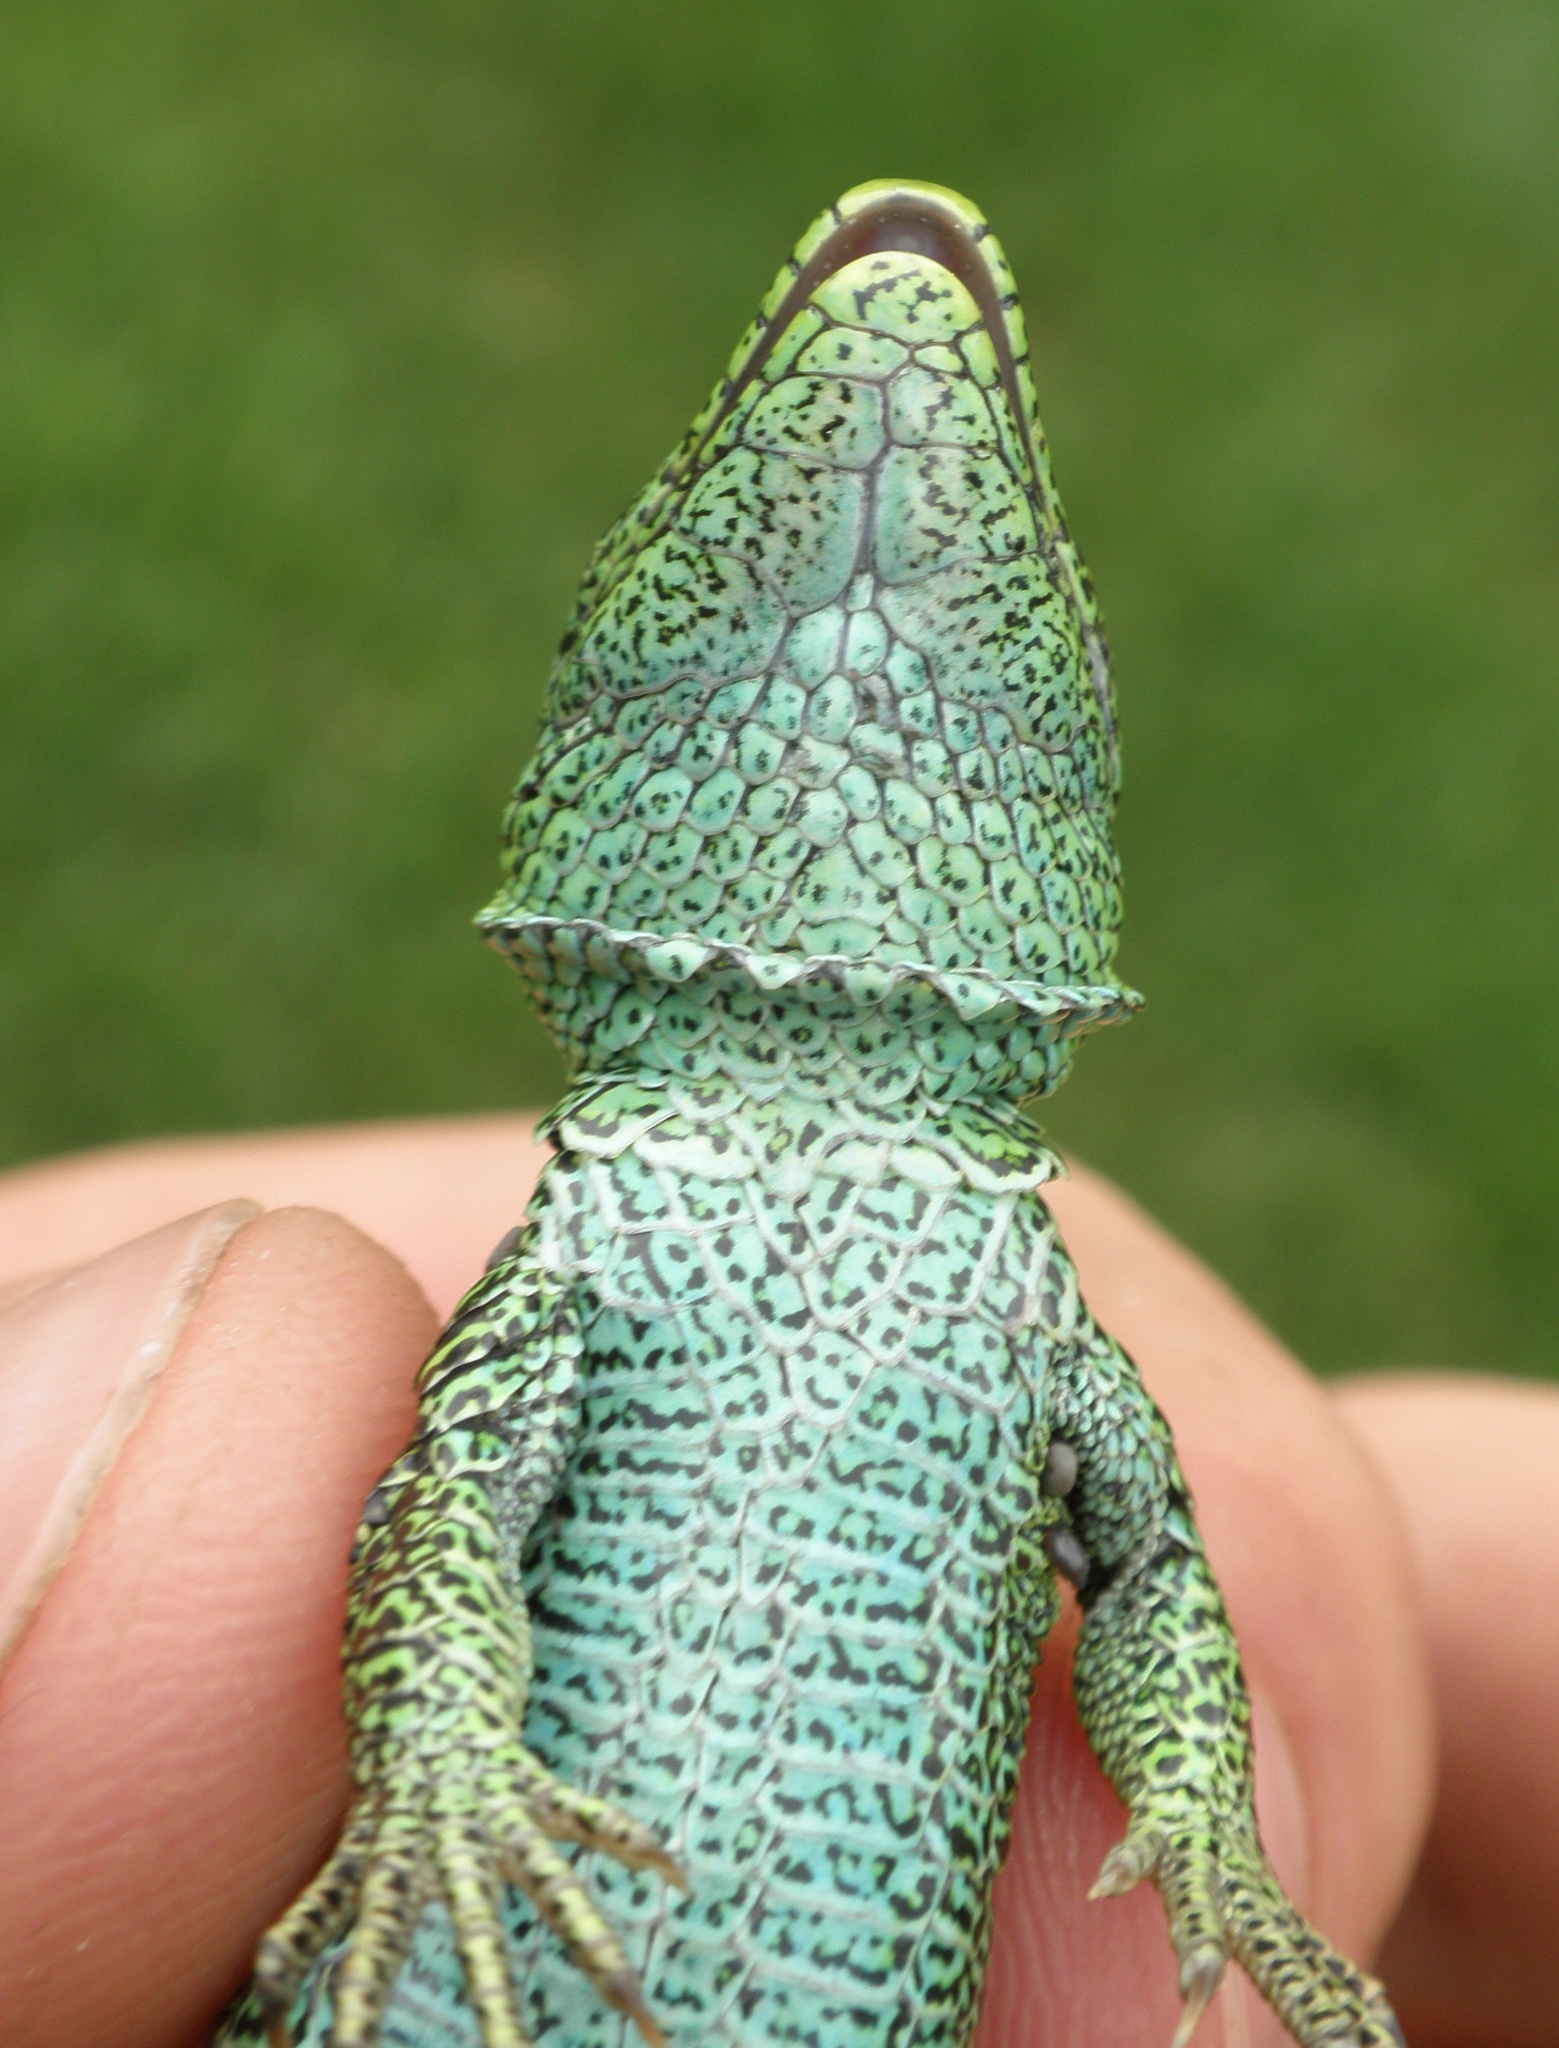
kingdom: Animalia
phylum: Chordata
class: Squamata
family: Lacertidae
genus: Lacerta
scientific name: Lacerta agilis
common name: Sand lizard
